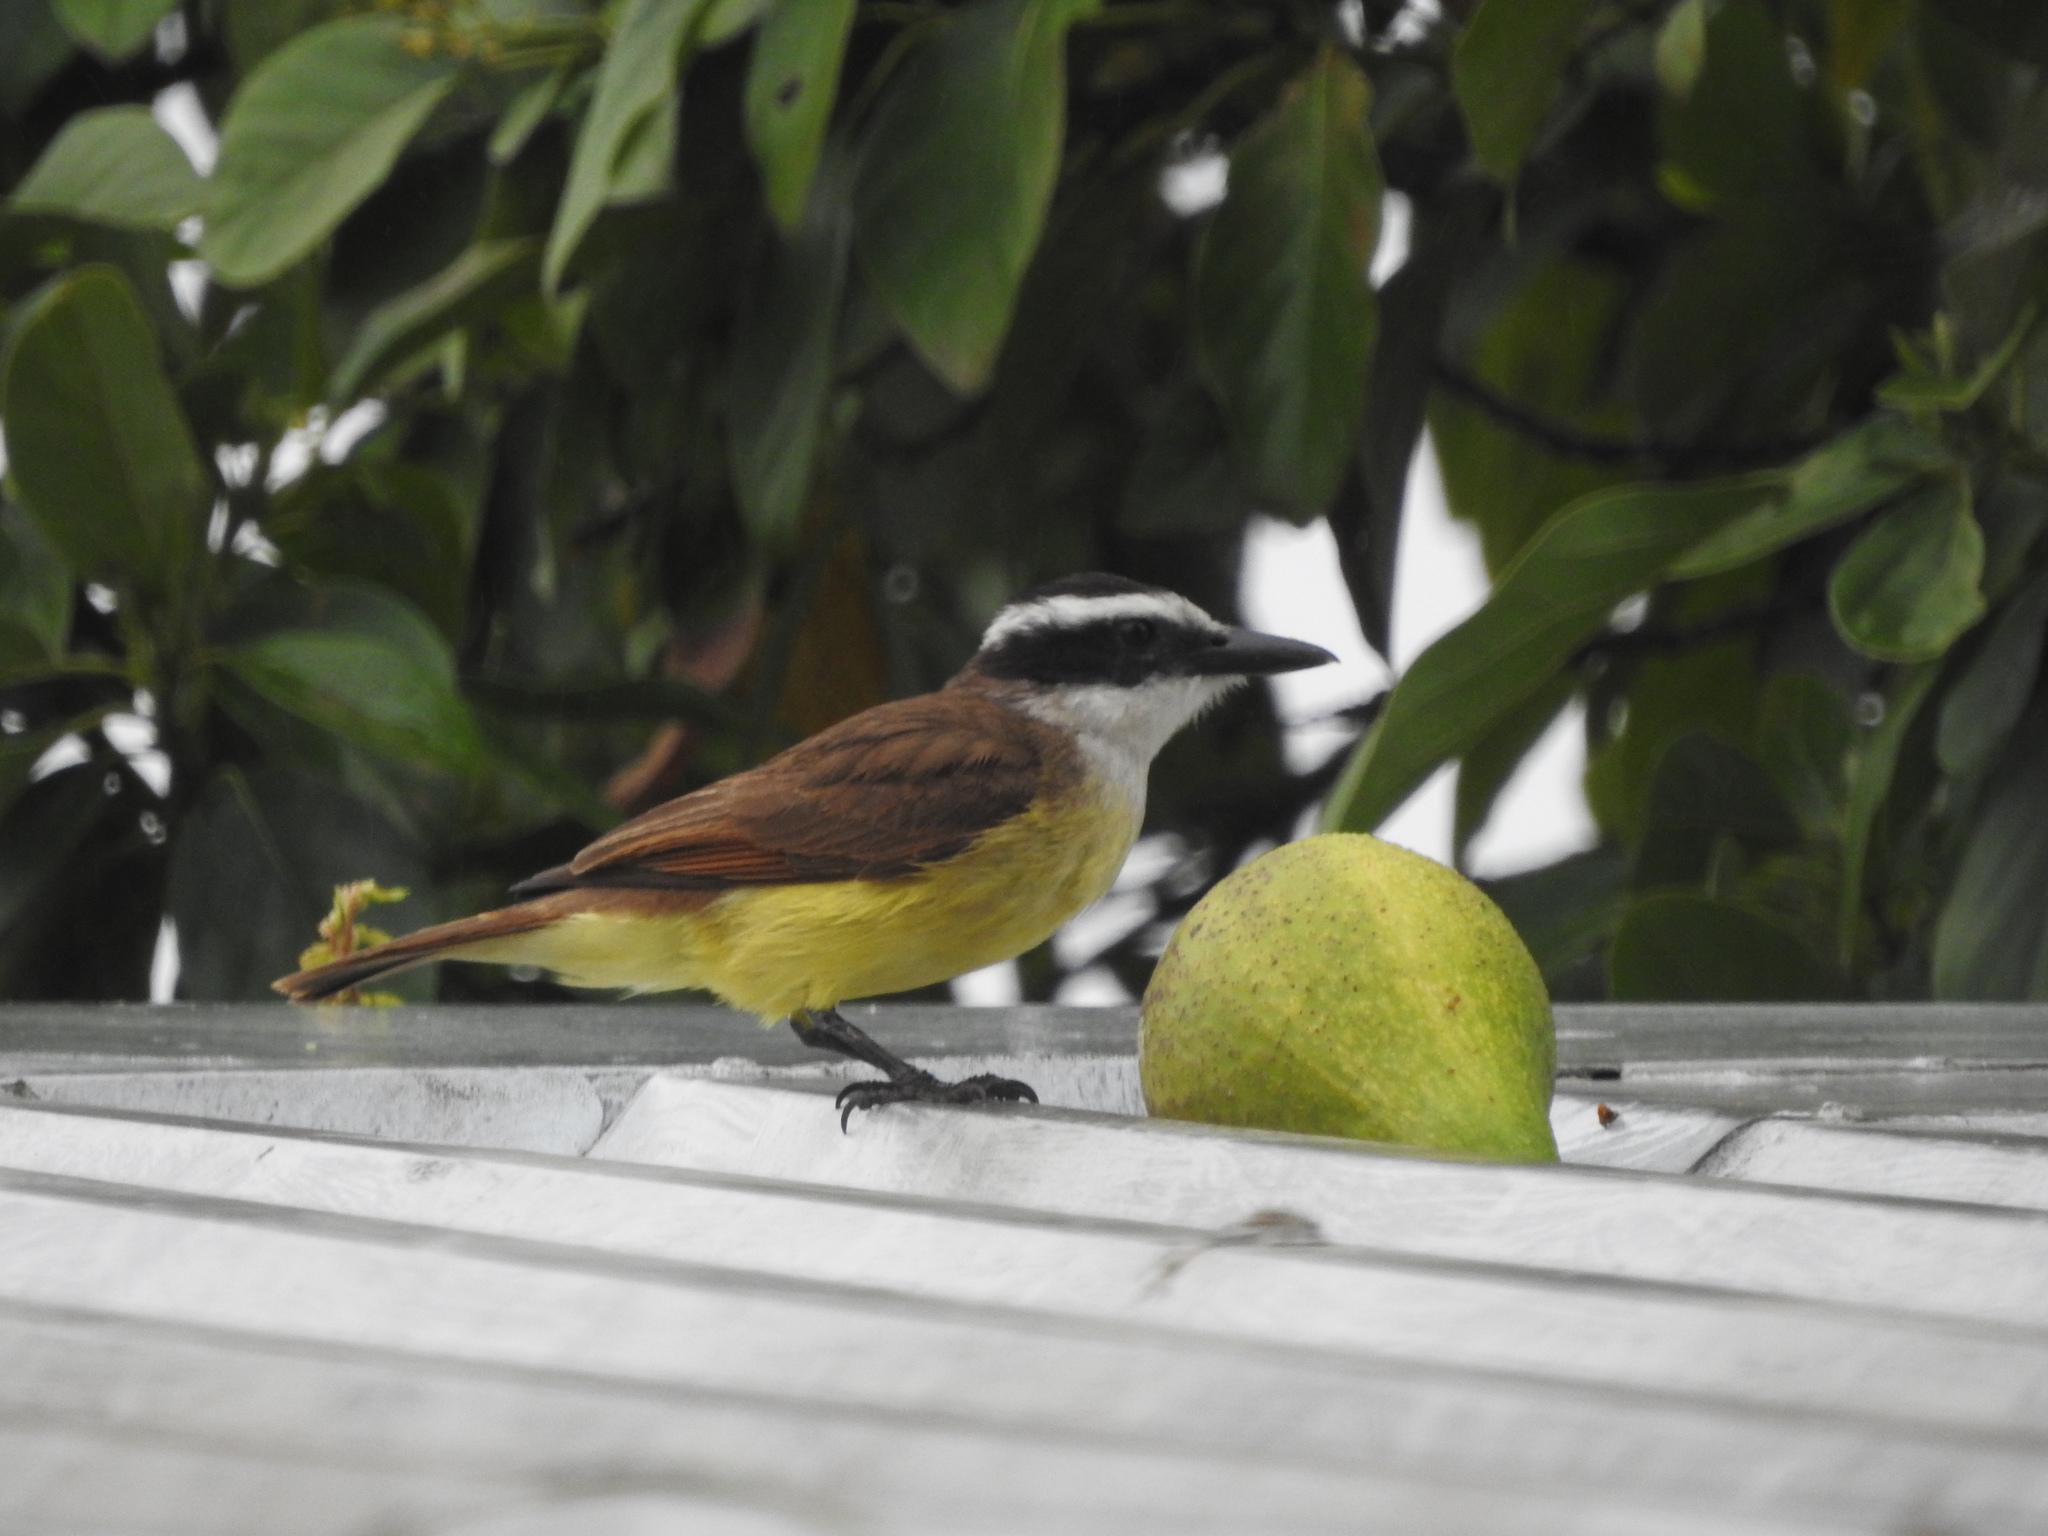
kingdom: Animalia
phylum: Chordata
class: Aves
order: Passeriformes
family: Tyrannidae
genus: Pitangus
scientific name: Pitangus sulphuratus
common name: Great kiskadee
